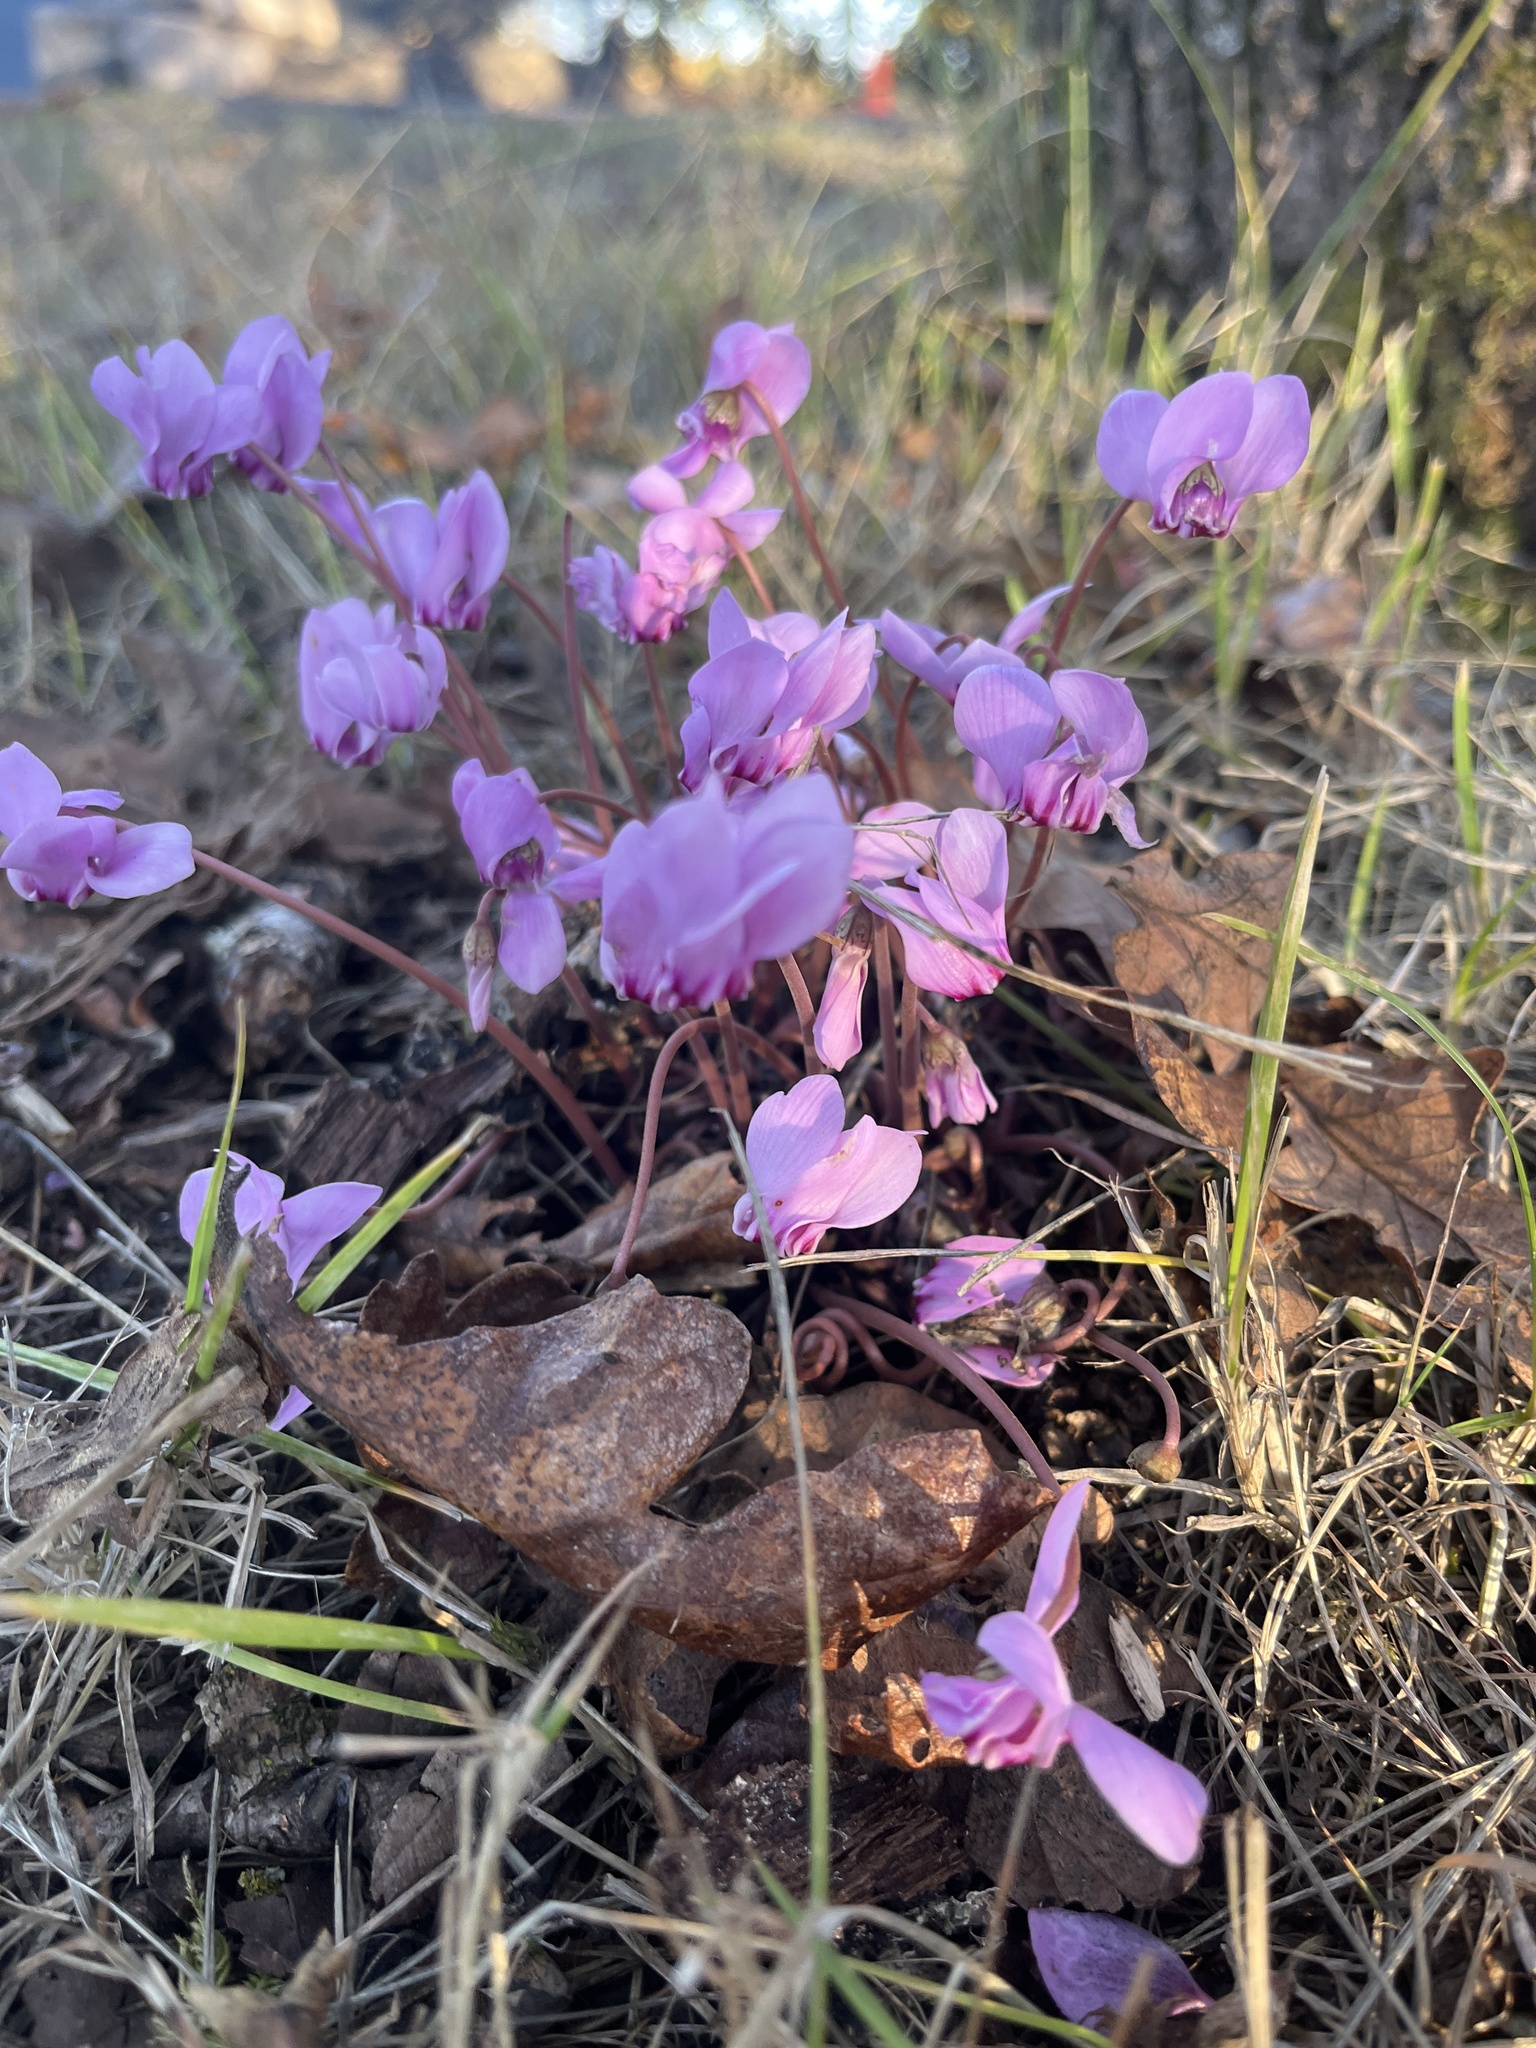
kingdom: Plantae
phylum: Tracheophyta
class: Magnoliopsida
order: Ericales
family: Primulaceae
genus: Cyclamen
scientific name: Cyclamen hederifolium
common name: Sowbread
